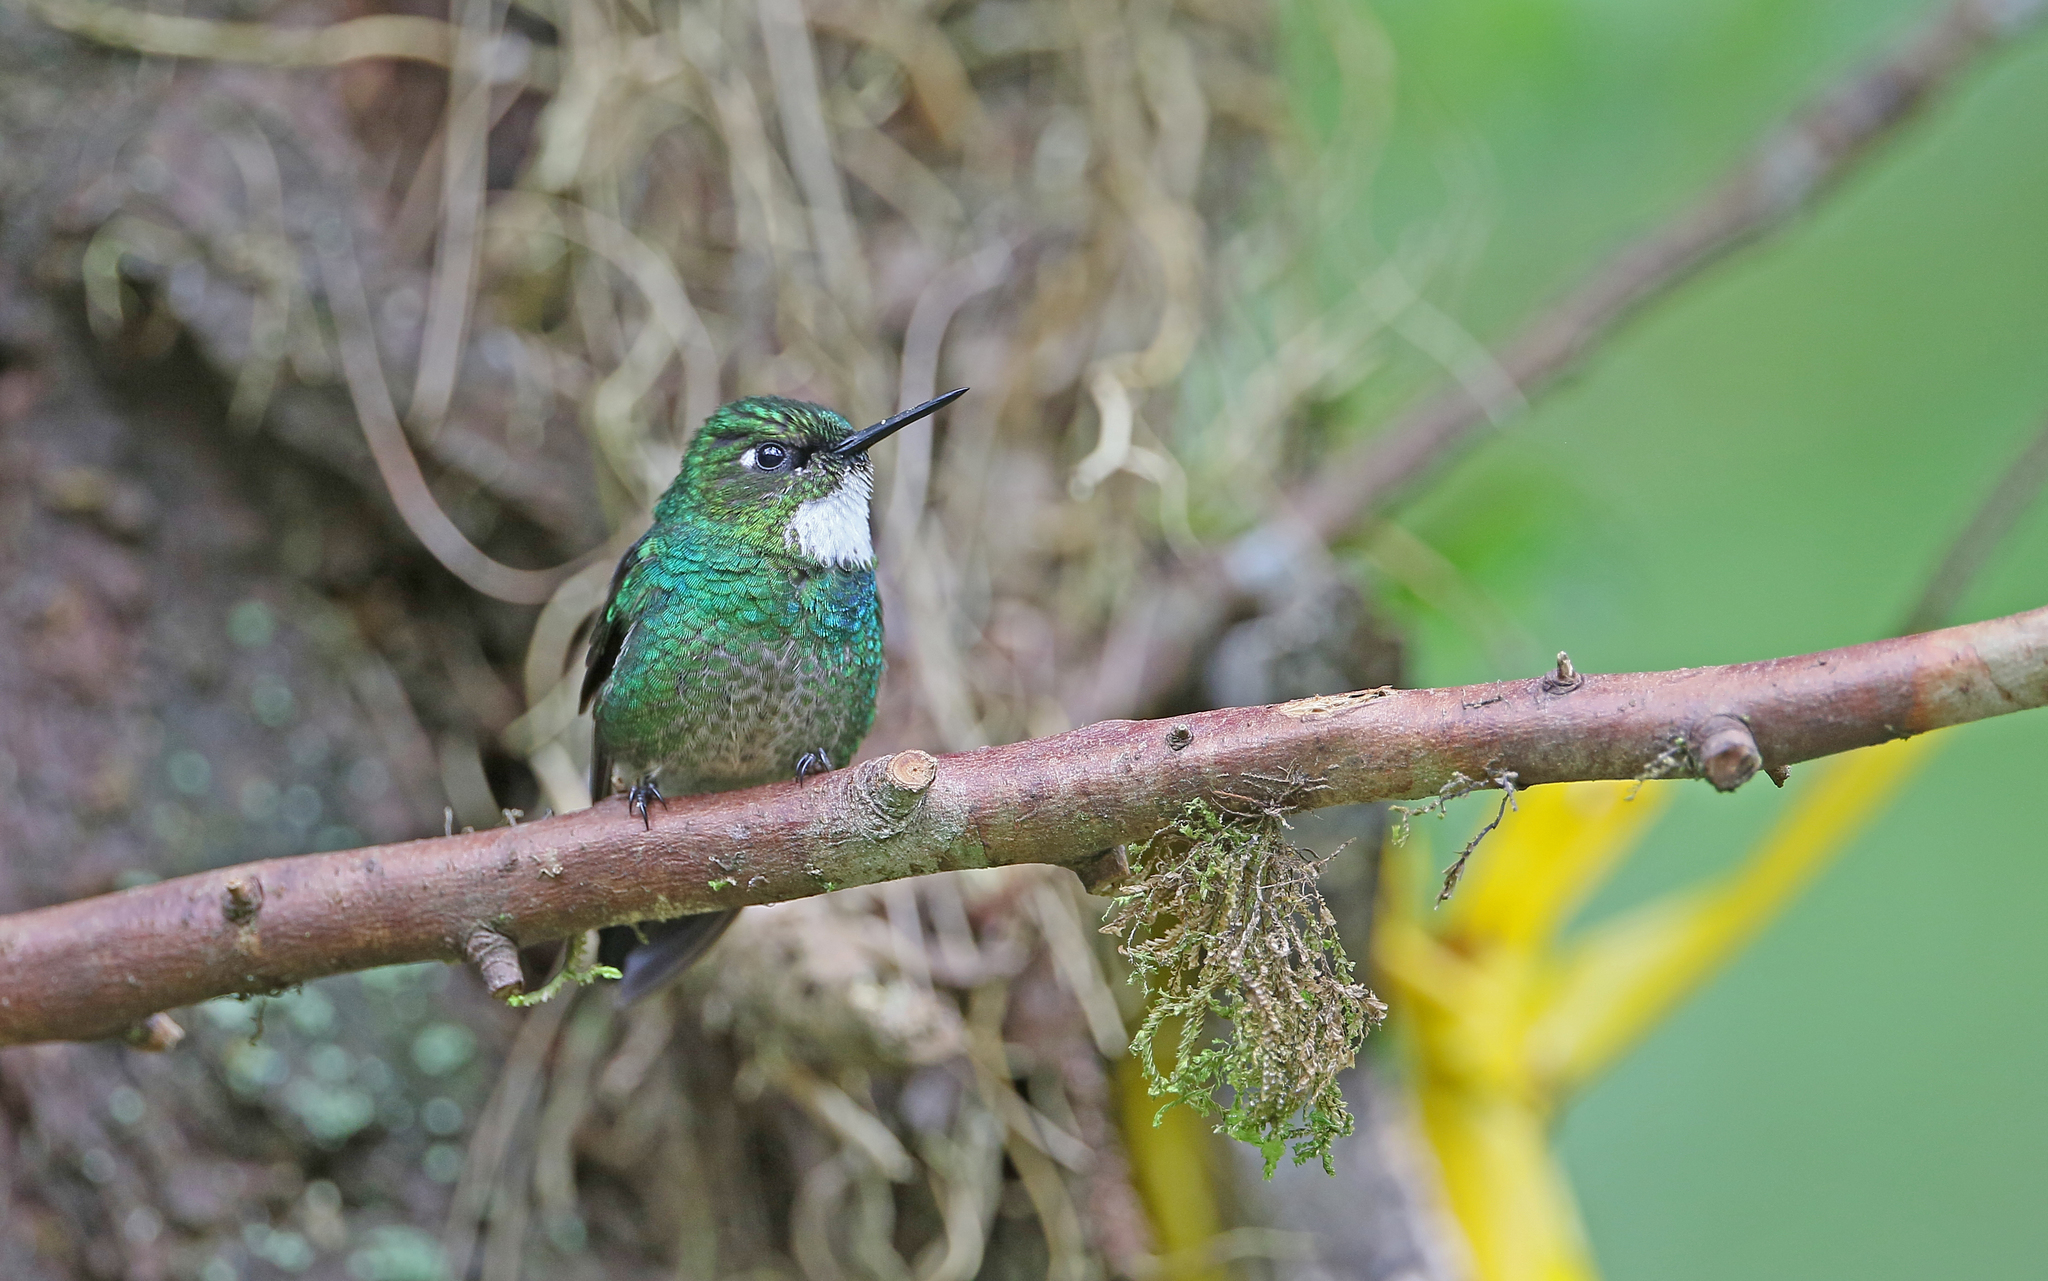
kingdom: Animalia
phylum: Chordata
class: Aves
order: Apodiformes
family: Trochilidae
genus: Heliangelus
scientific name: Heliangelus exortis
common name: Tourmaline sunangel
